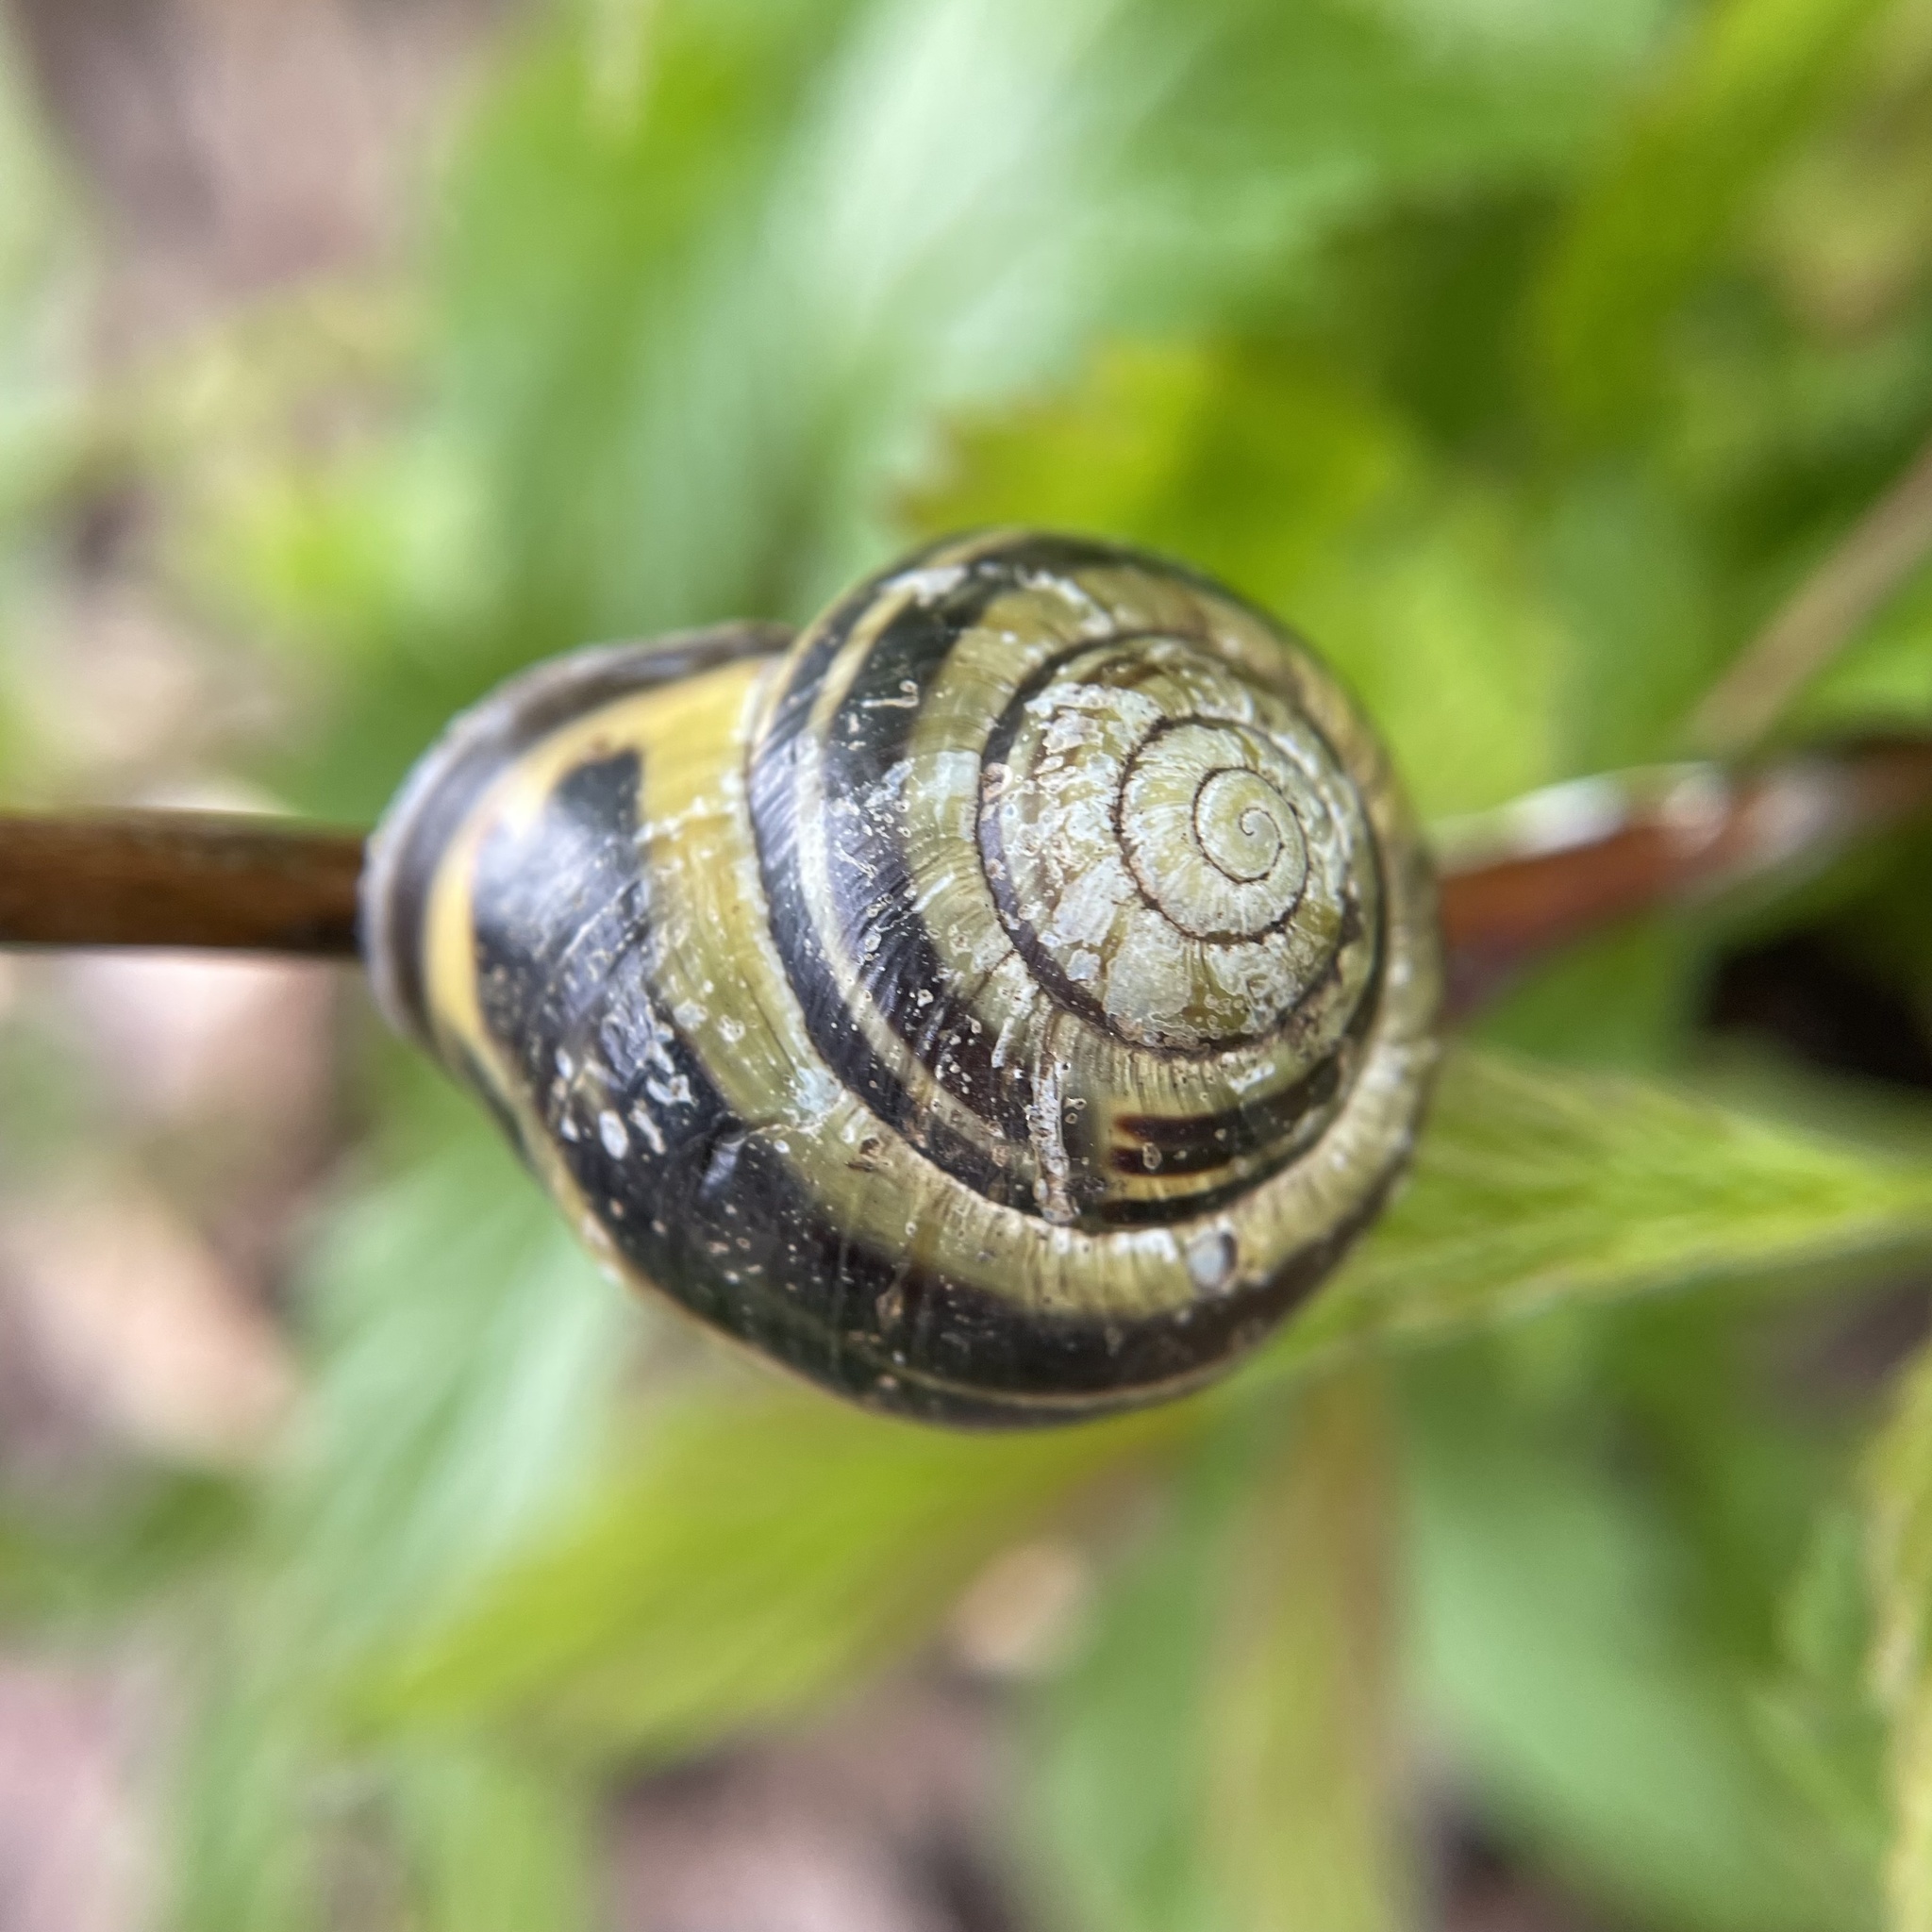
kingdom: Animalia
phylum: Mollusca
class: Gastropoda
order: Stylommatophora
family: Helicidae
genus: Cepaea
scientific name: Cepaea nemoralis
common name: Grovesnail
